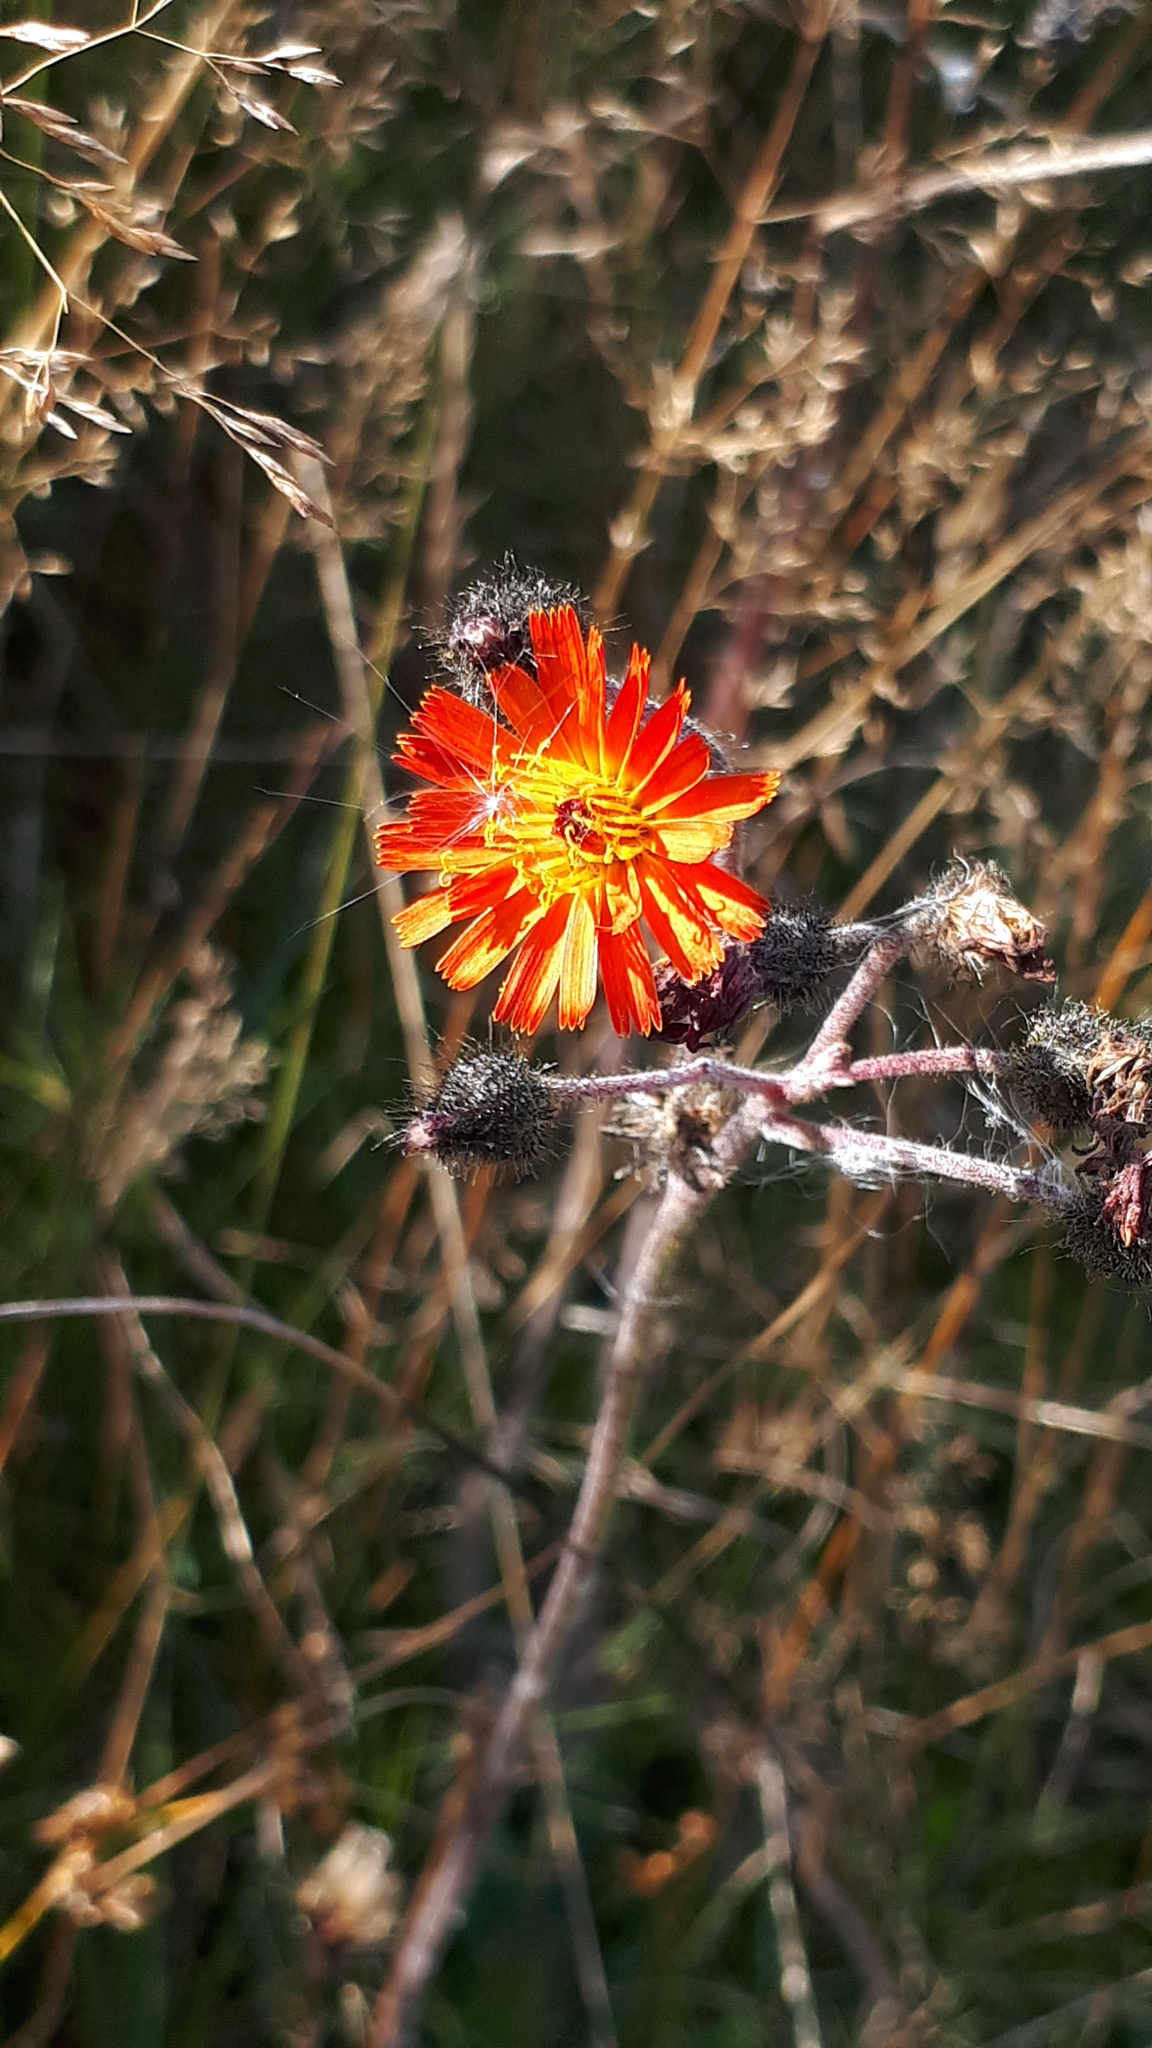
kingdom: Plantae
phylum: Tracheophyta
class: Magnoliopsida
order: Asterales
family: Asteraceae
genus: Pilosella
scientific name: Pilosella aurantiaca
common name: Fox-and-cubs
